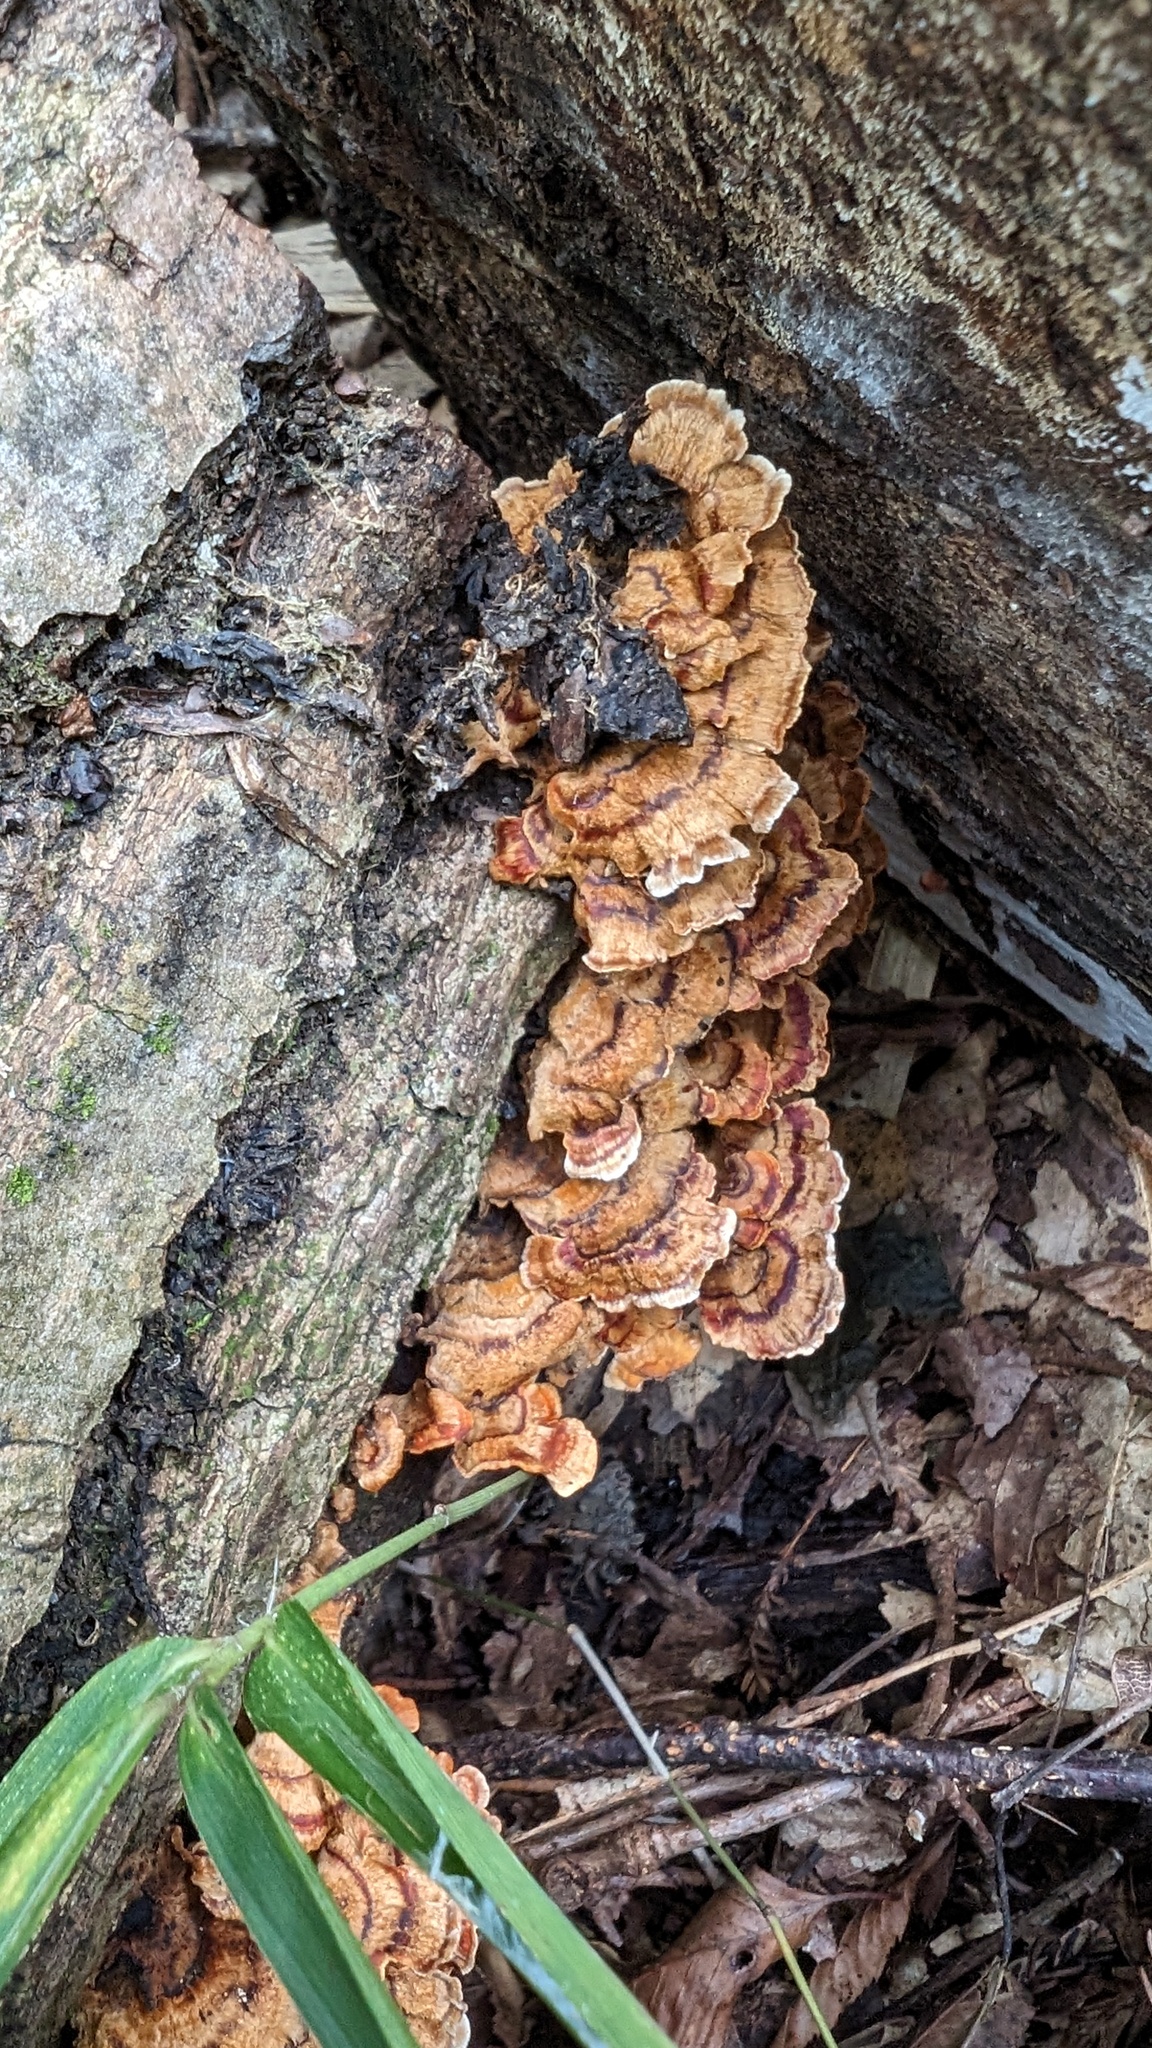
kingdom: Fungi
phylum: Basidiomycota
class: Agaricomycetes
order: Russulales
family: Stereaceae
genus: Stereum
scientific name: Stereum gausapatum
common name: Bleeding oak crust
